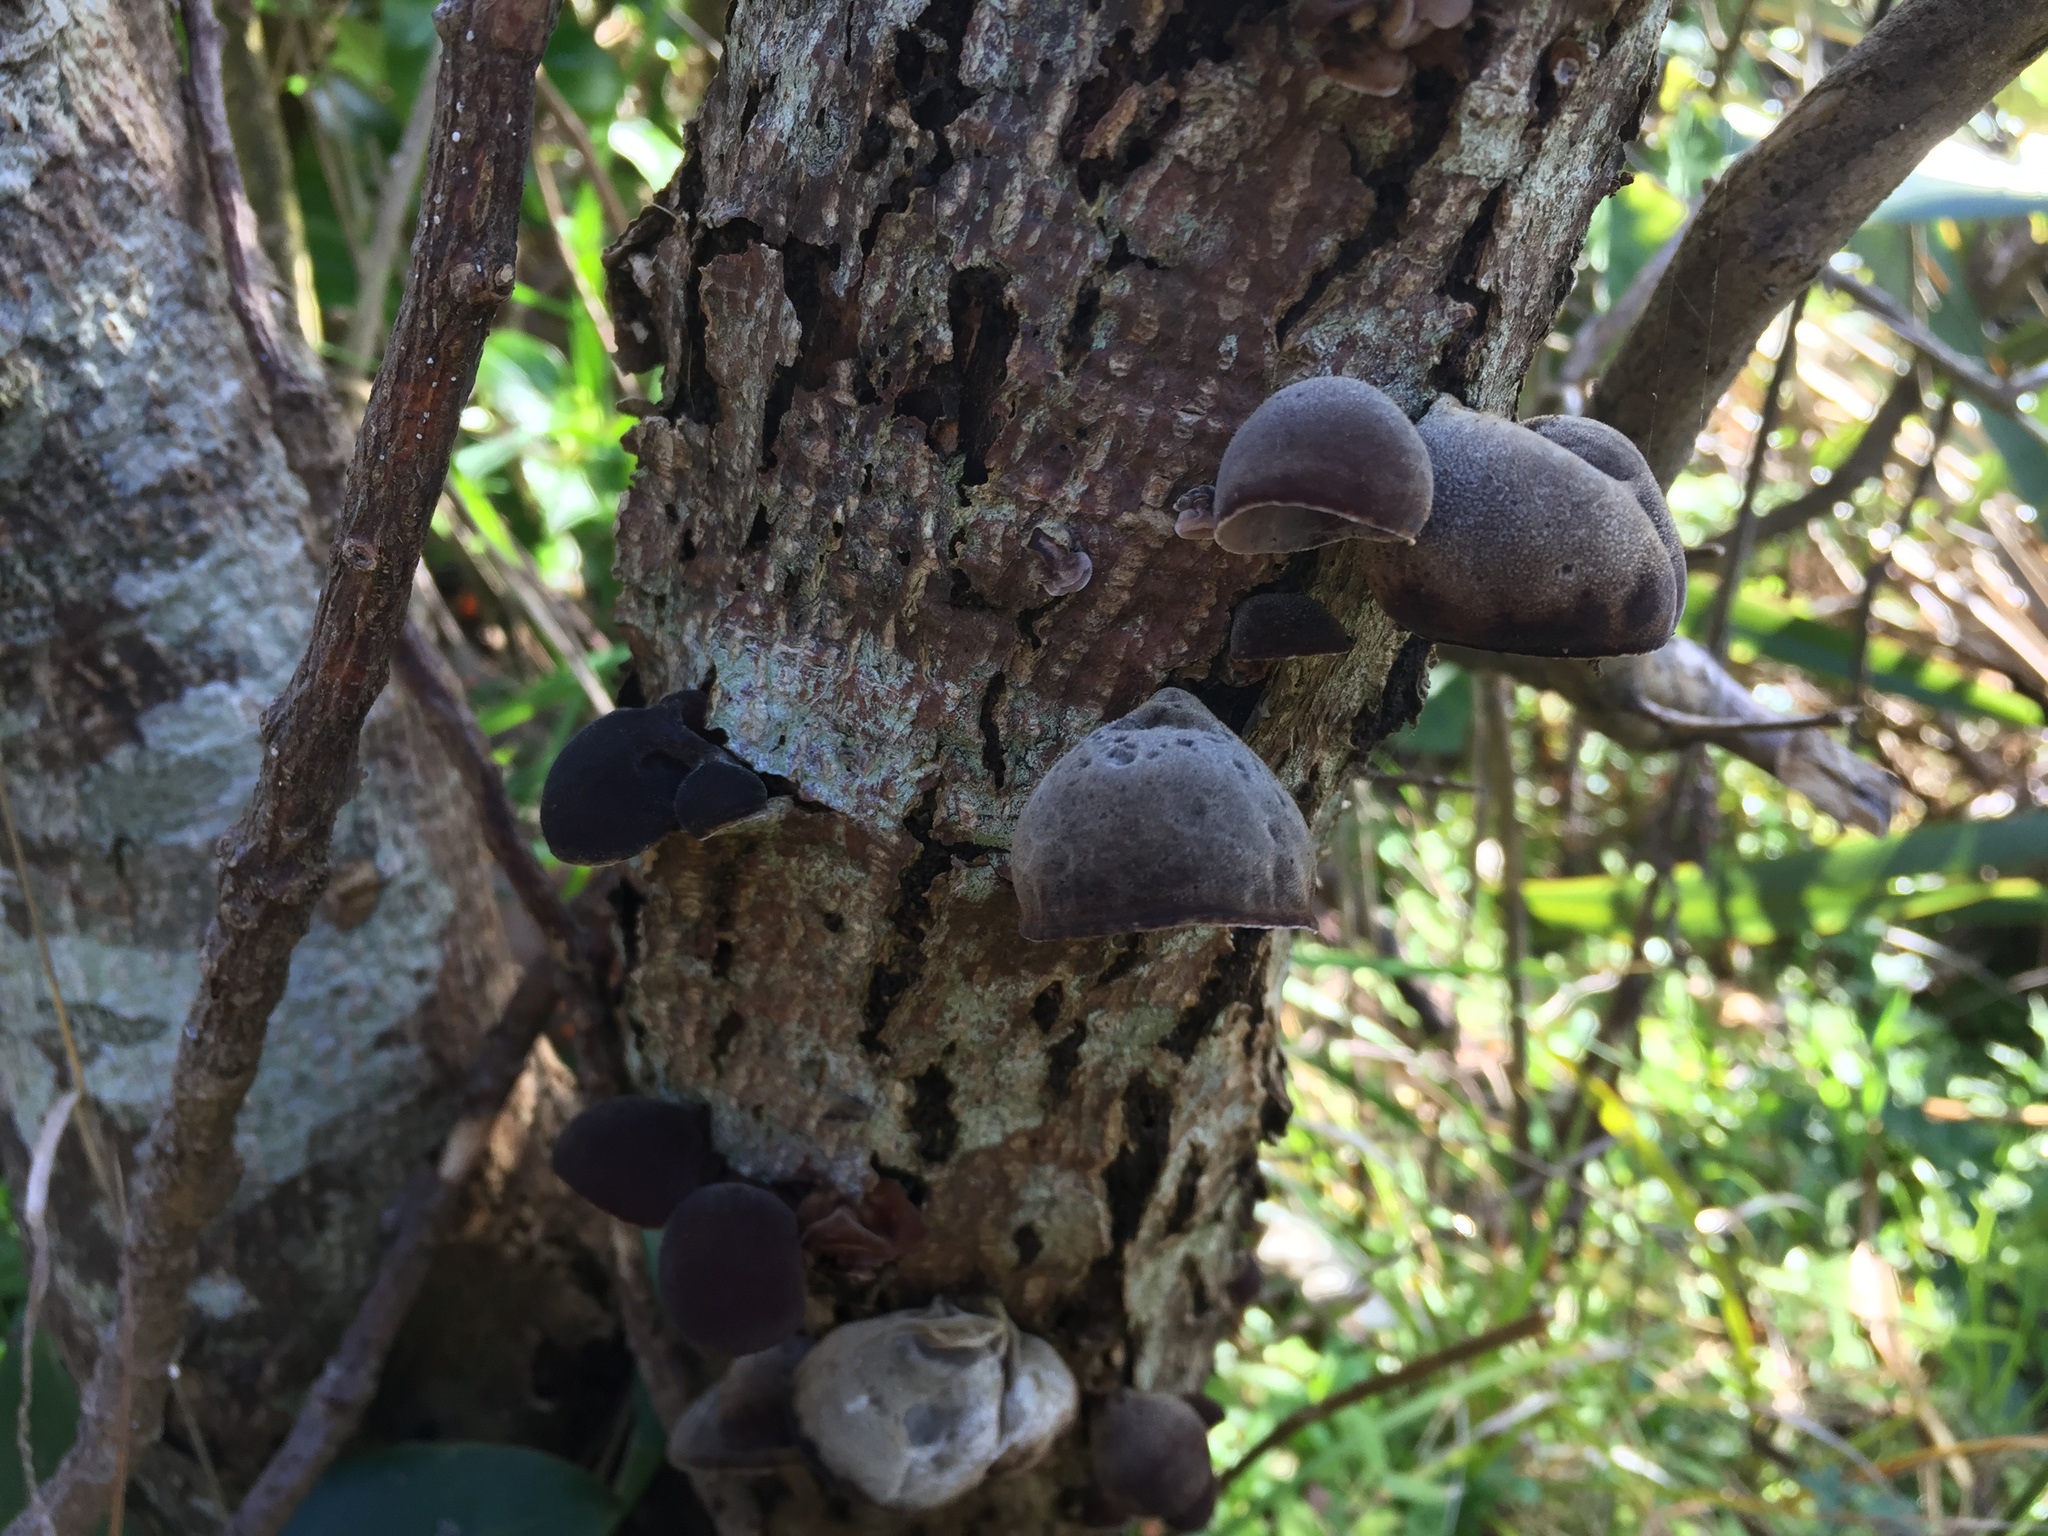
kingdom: Fungi
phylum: Basidiomycota
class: Agaricomycetes
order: Auriculariales
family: Auriculariaceae
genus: Auricularia
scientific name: Auricularia cornea
